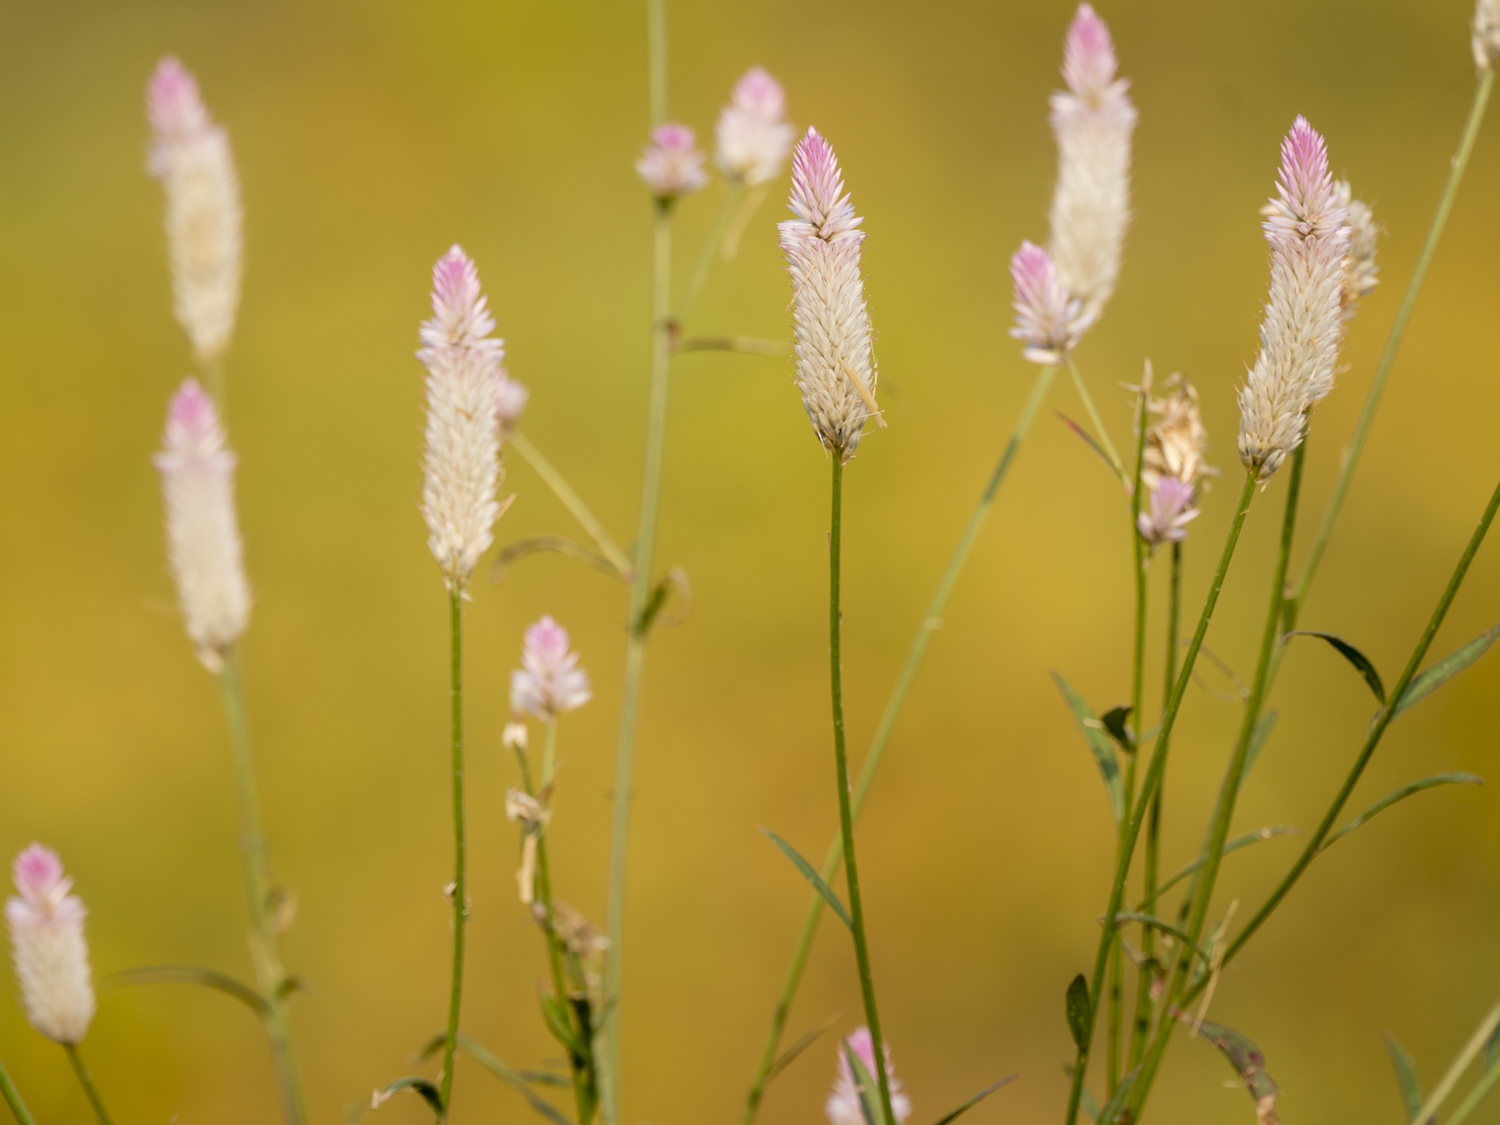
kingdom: Plantae
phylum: Tracheophyta
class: Magnoliopsida
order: Caryophyllales
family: Amaranthaceae
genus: Celosia
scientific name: Celosia argentea
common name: Feather cockscomb
